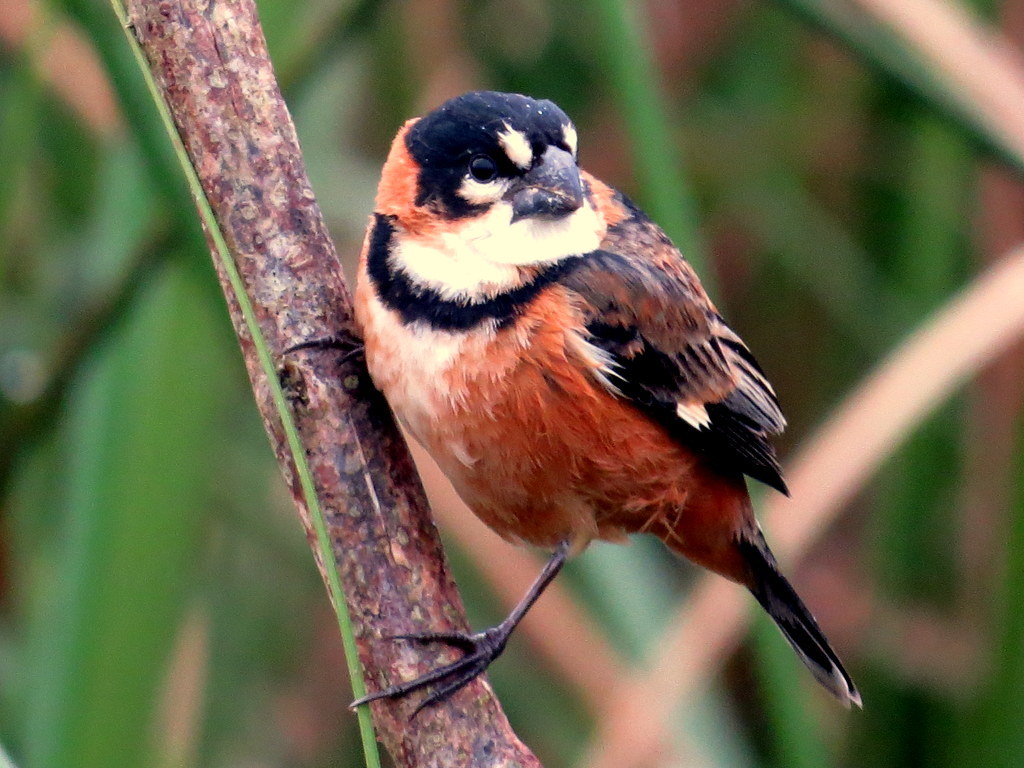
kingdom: Animalia
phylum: Chordata
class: Aves
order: Passeriformes
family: Thraupidae
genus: Sporophila
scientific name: Sporophila collaris
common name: Rusty-collared seedeater
